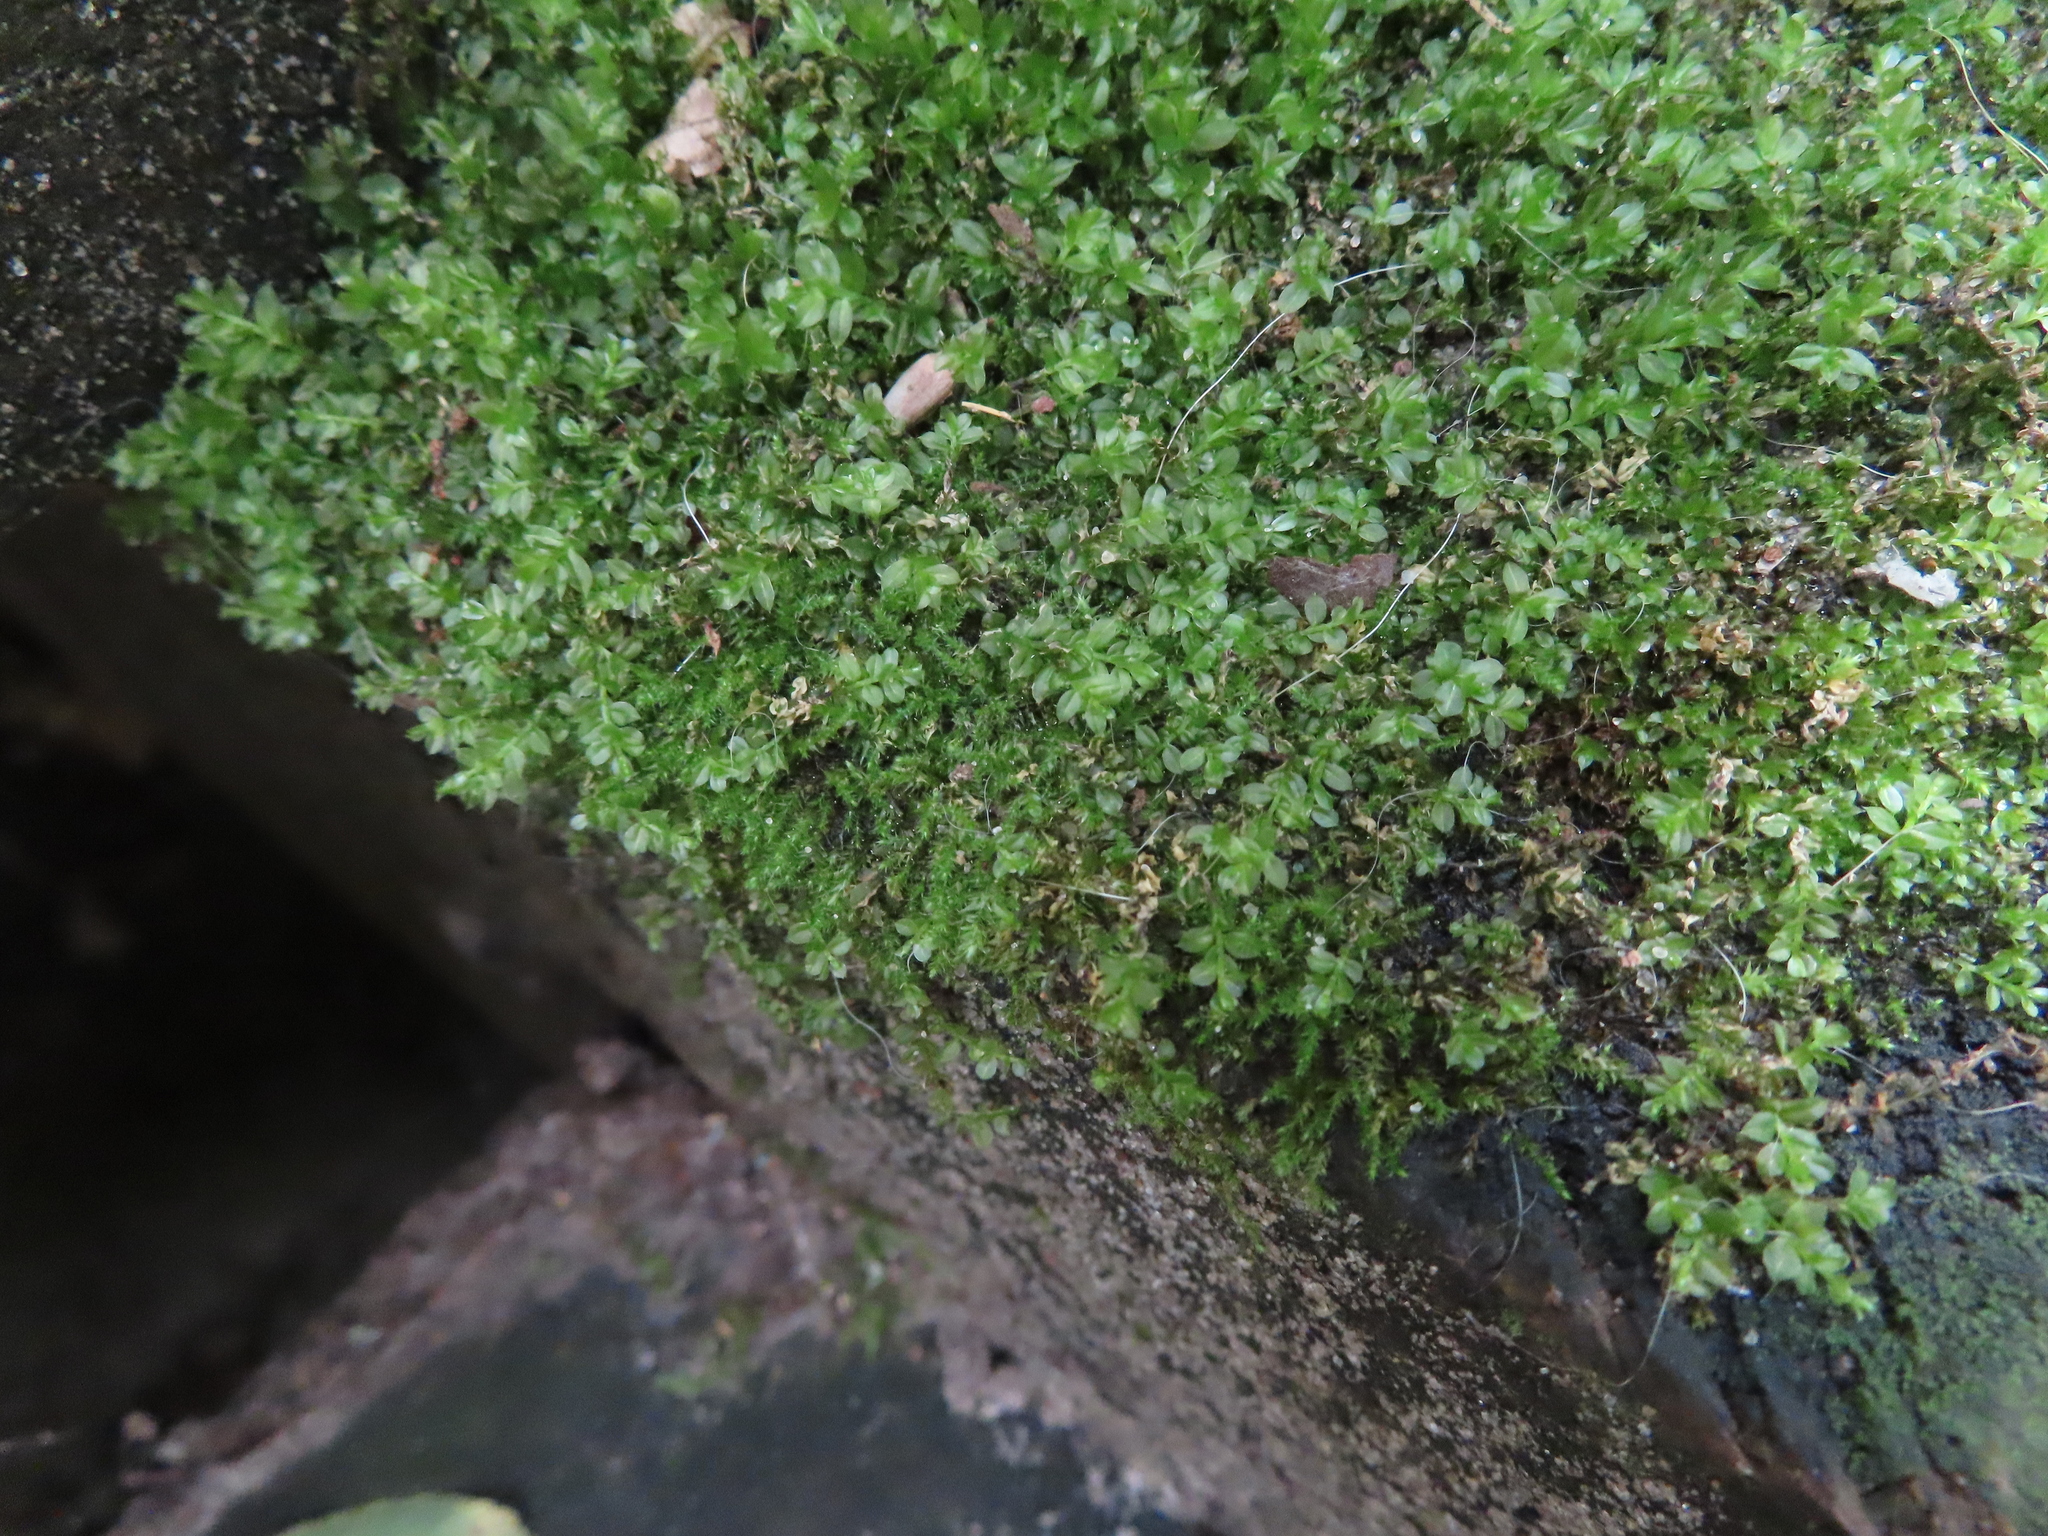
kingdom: Plantae
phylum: Bryophyta
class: Bryopsida
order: Bryales
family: Mniaceae
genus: Plagiomnium
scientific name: Plagiomnium cuspidatum
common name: Woodsy leafy moss
